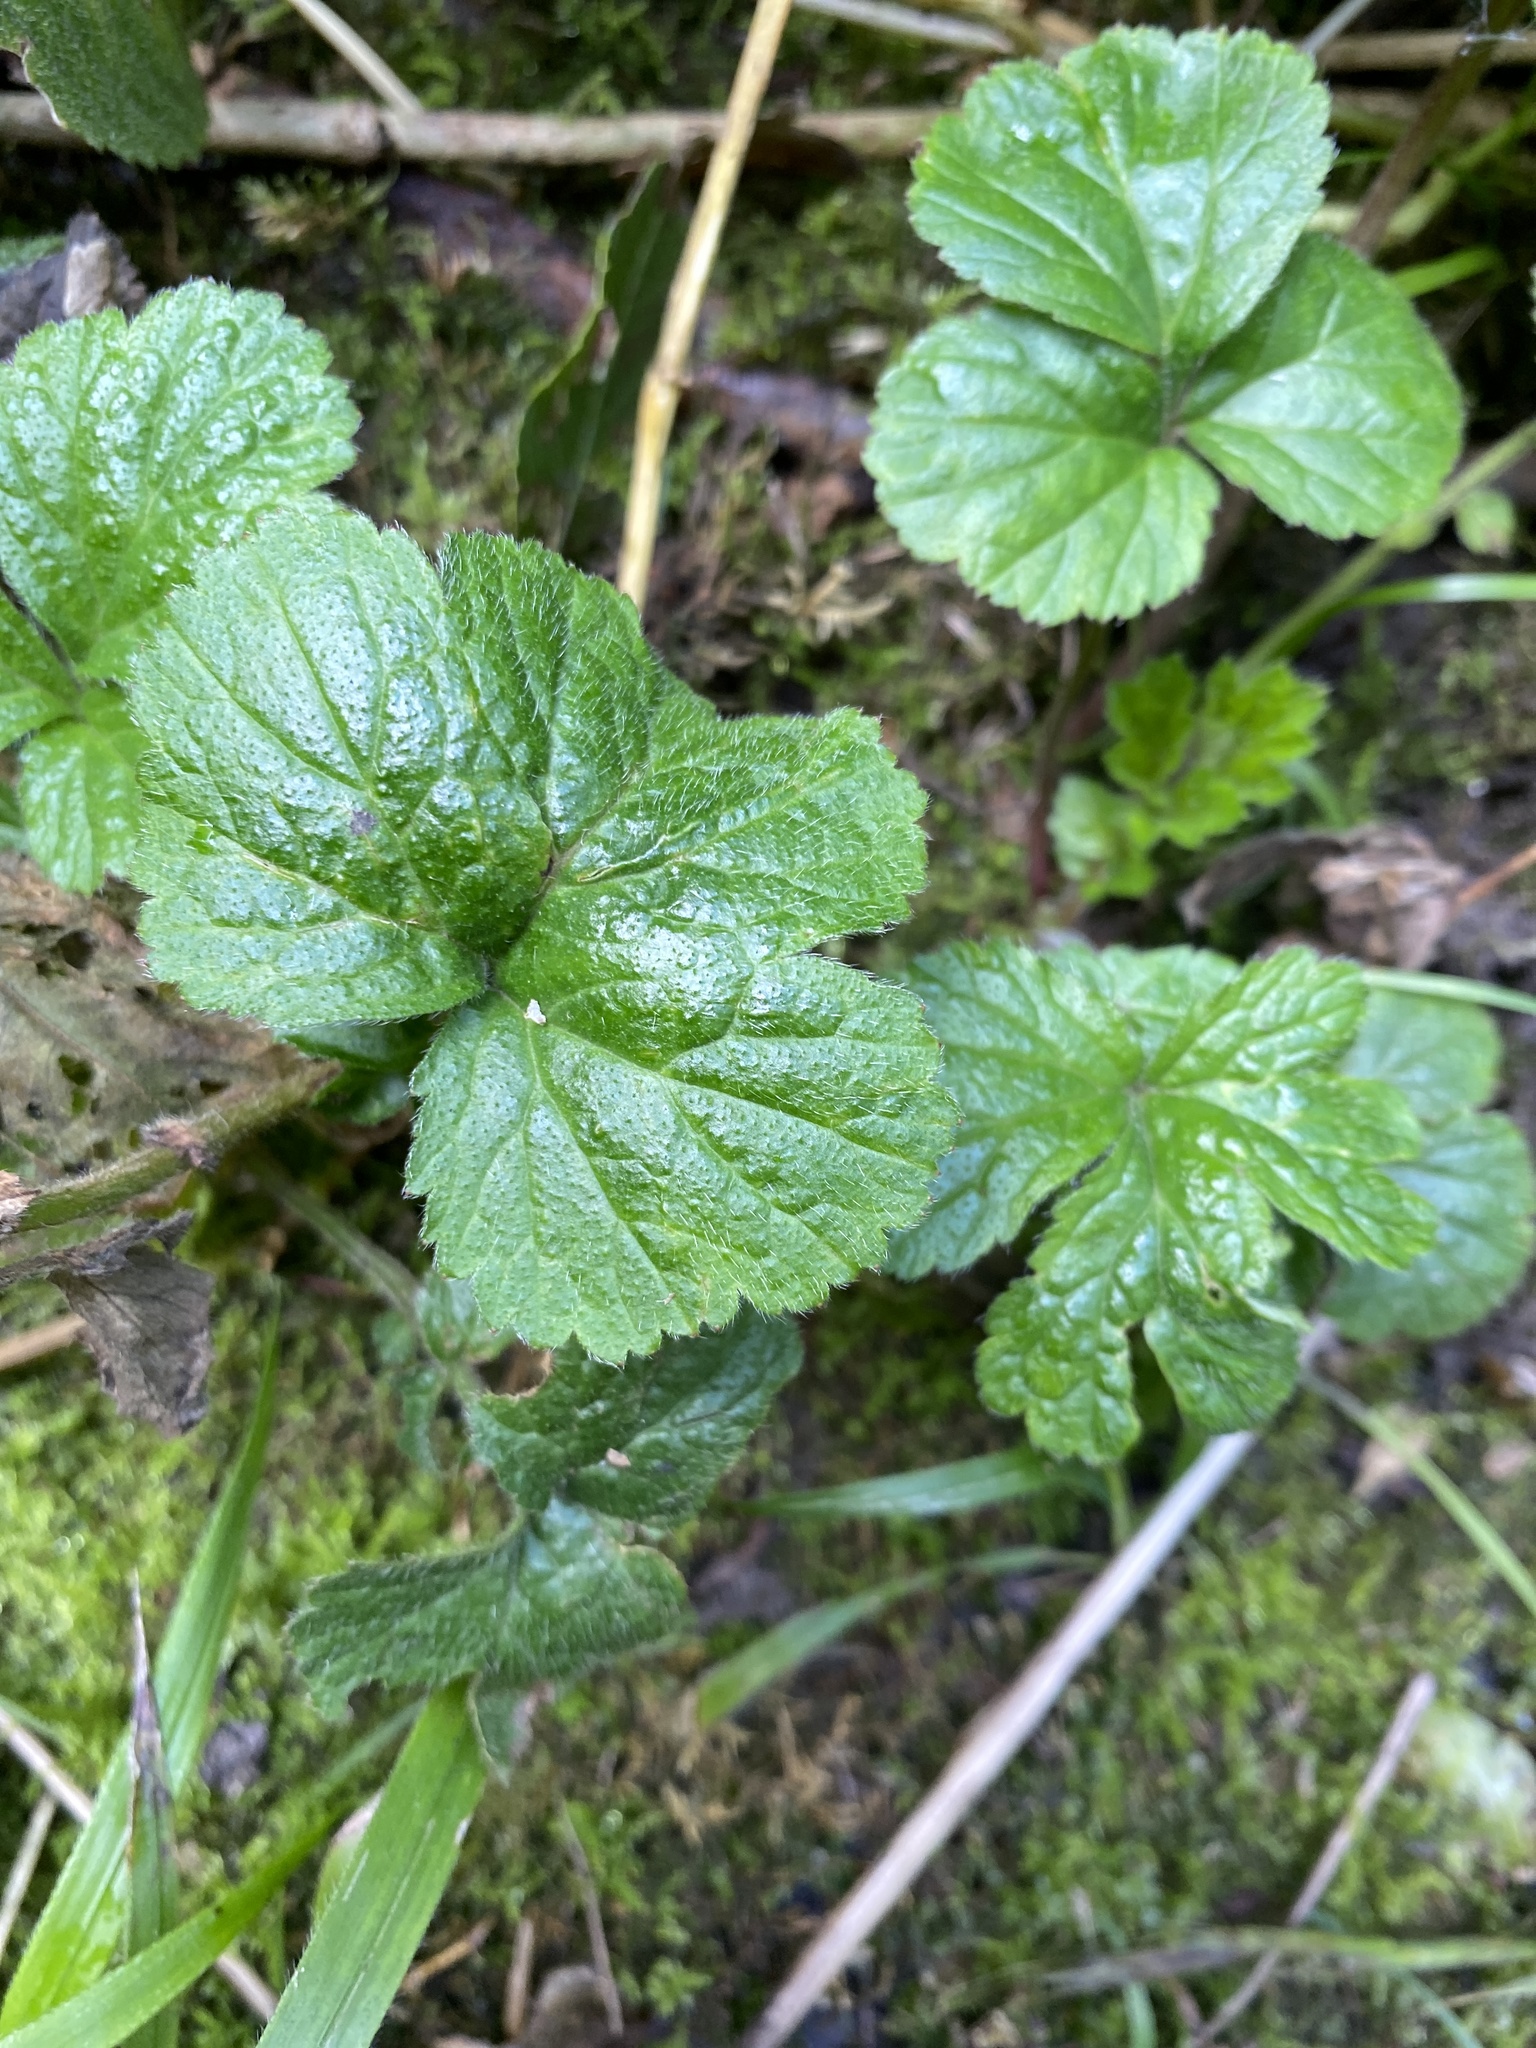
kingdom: Plantae
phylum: Tracheophyta
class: Magnoliopsida
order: Rosales
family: Rosaceae
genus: Geum
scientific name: Geum urbanum
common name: Wood avens
